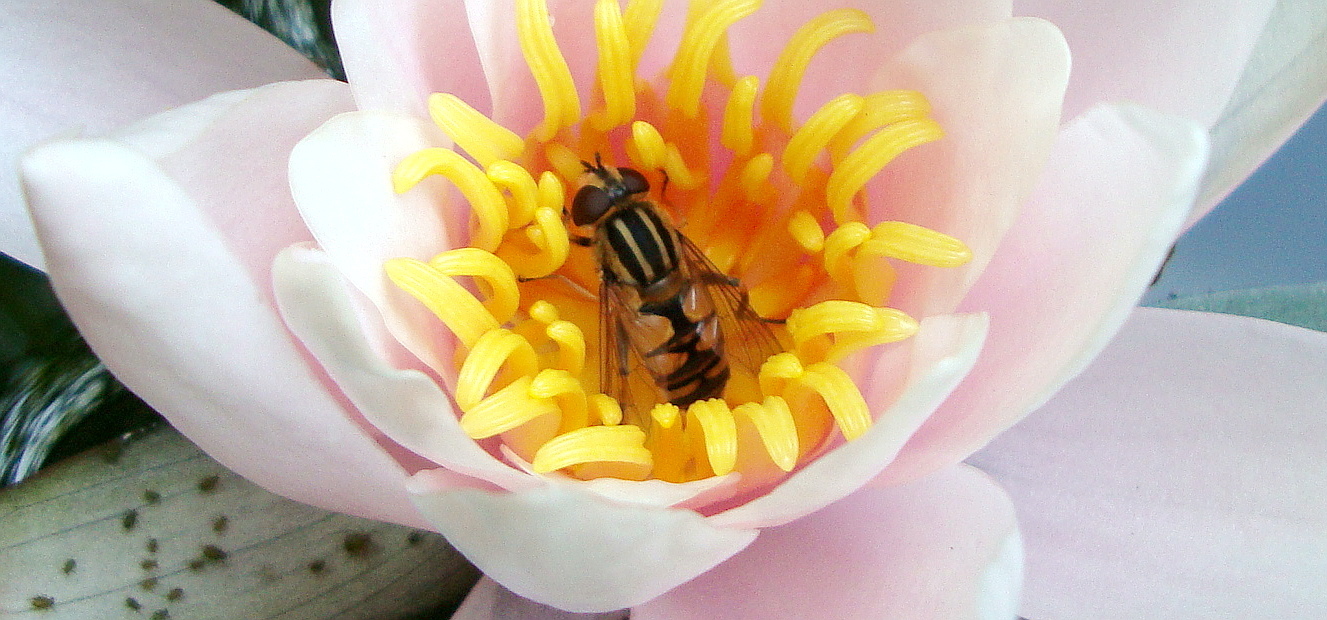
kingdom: Animalia
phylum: Arthropoda
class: Insecta
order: Diptera
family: Syrphidae
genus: Helophilus
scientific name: Helophilus hybridus
